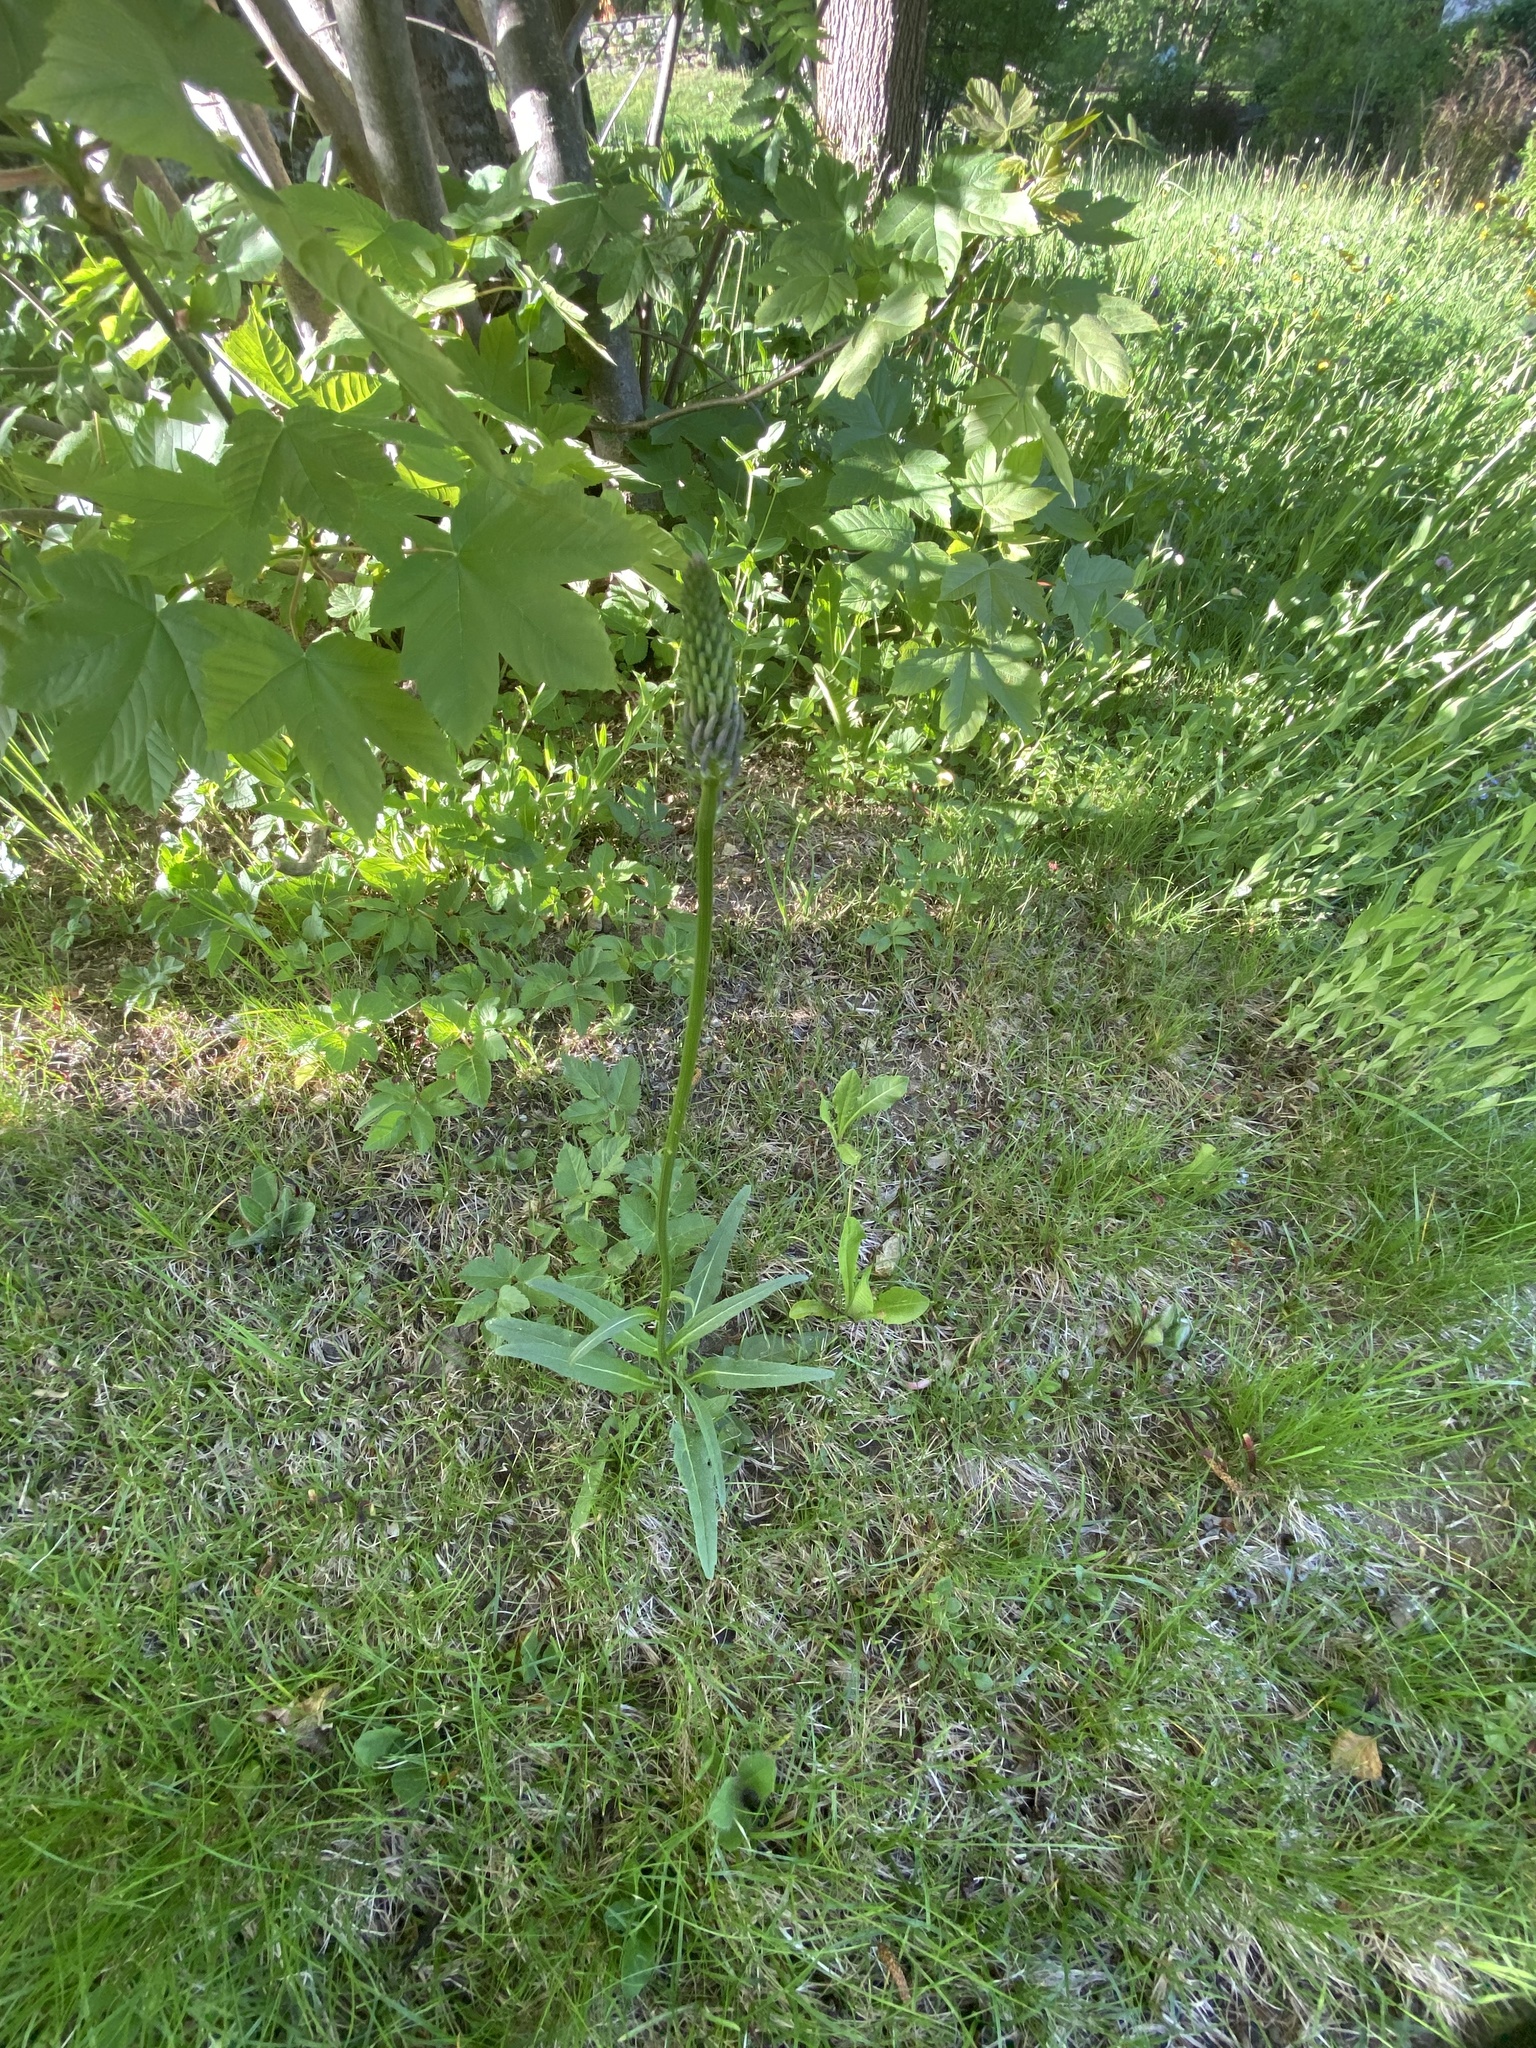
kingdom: Plantae
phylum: Tracheophyta
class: Magnoliopsida
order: Asterales
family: Campanulaceae
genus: Phyteuma
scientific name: Phyteuma betonicifolium
